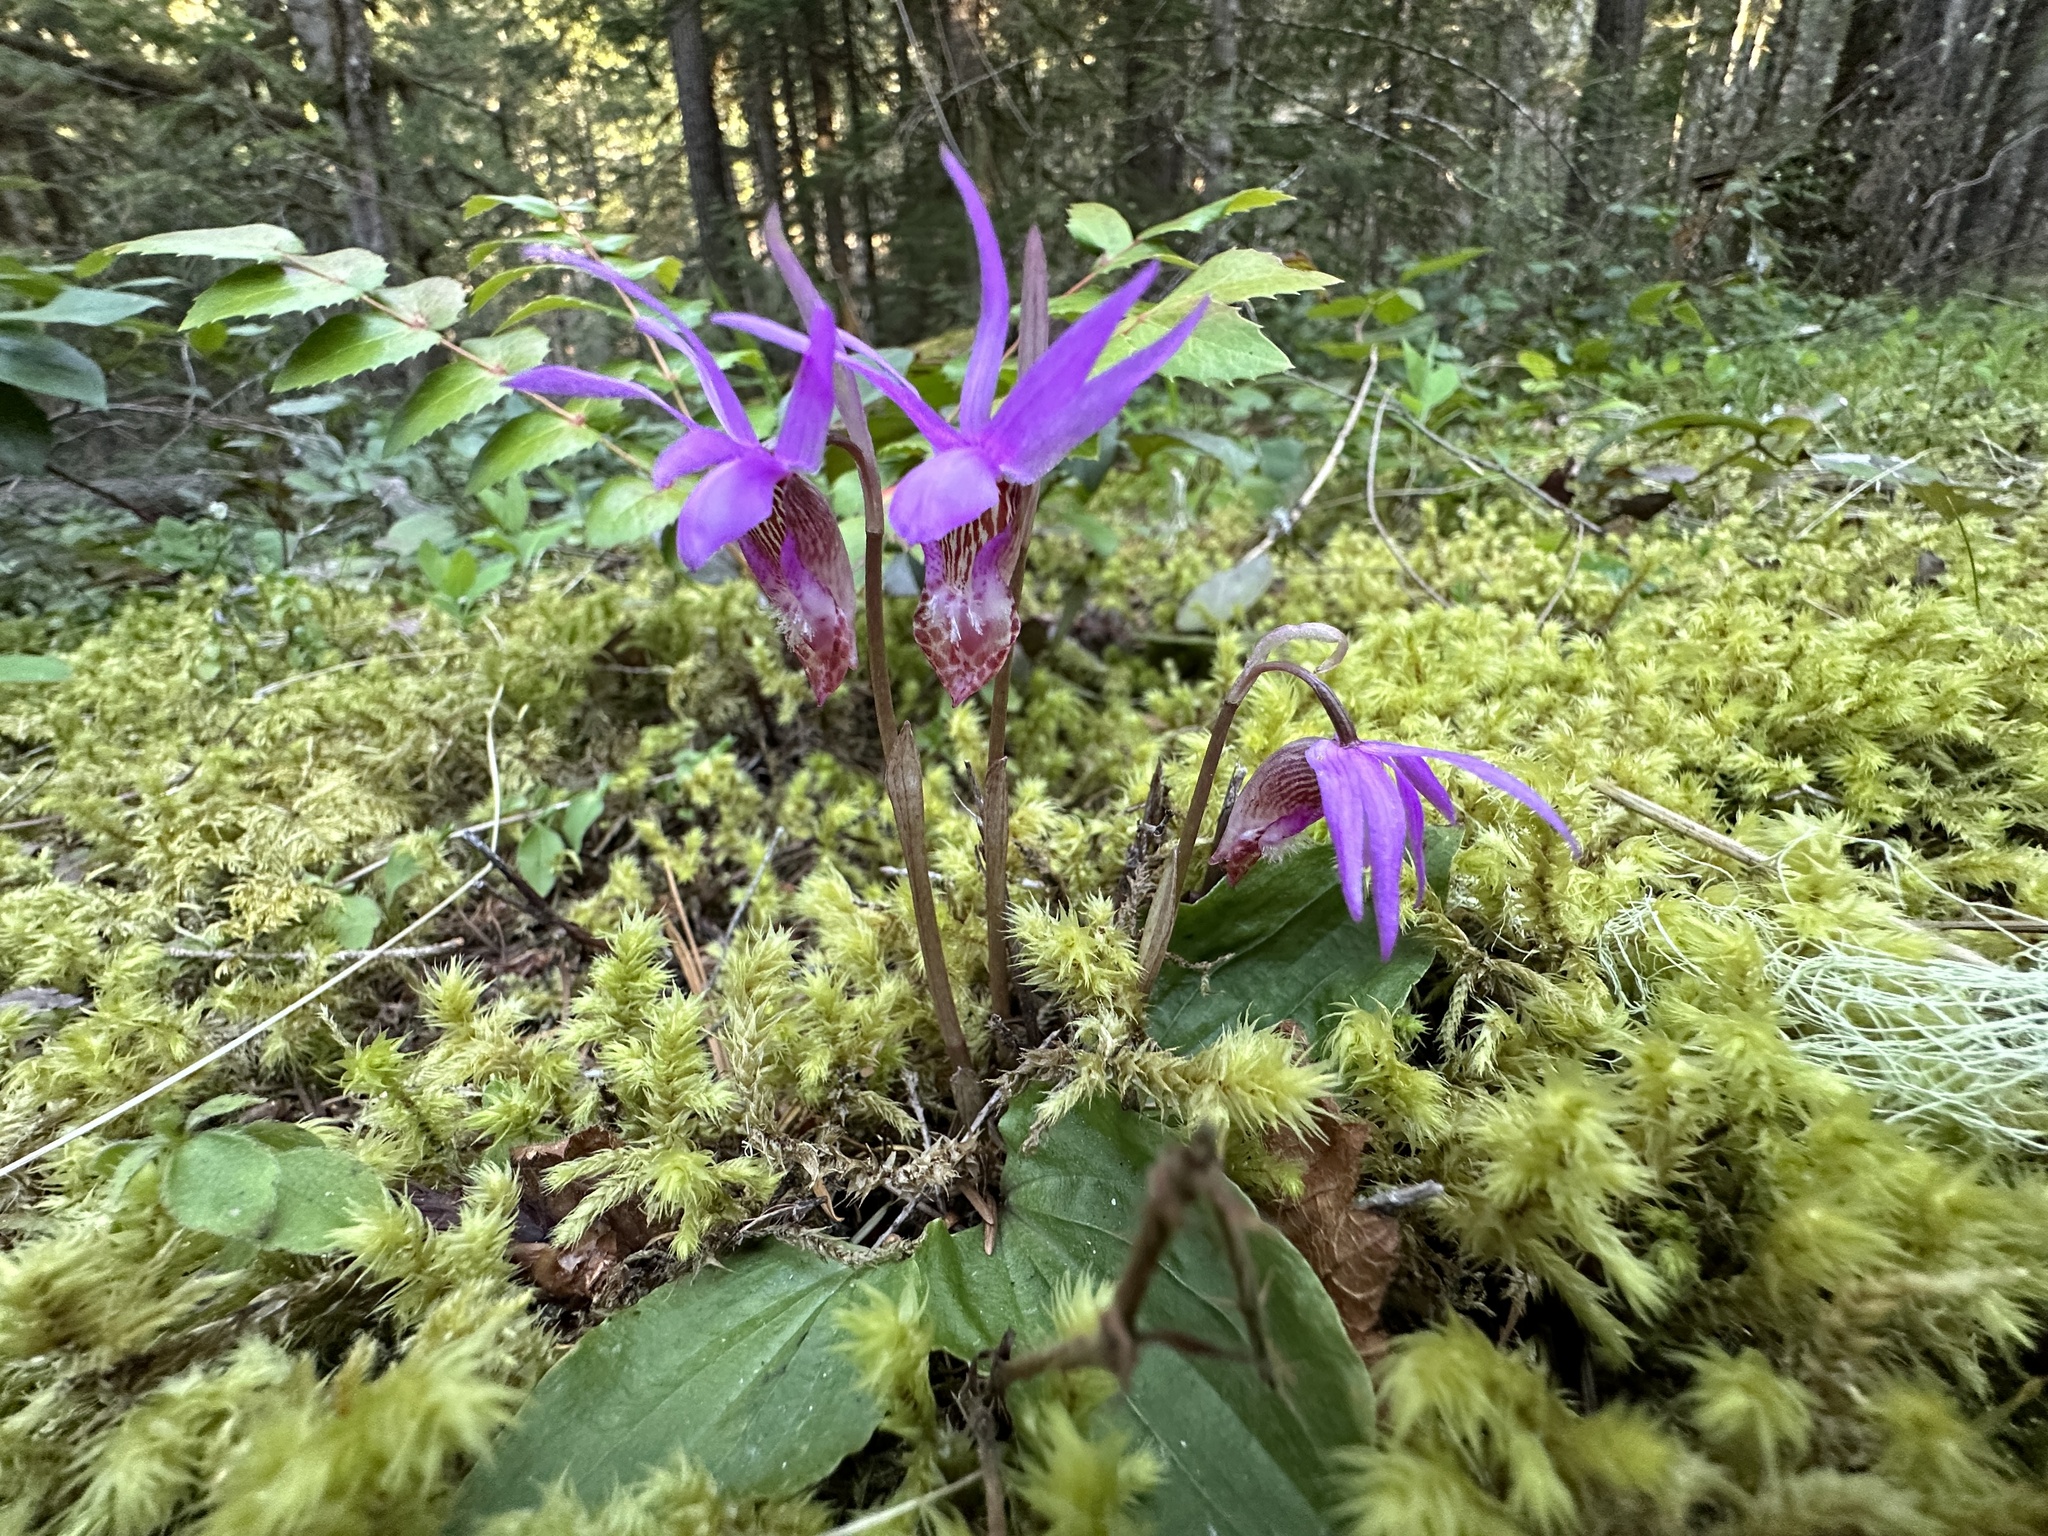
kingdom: Plantae
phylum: Tracheophyta
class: Liliopsida
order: Asparagales
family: Orchidaceae
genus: Calypso
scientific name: Calypso bulbosa
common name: Calypso
